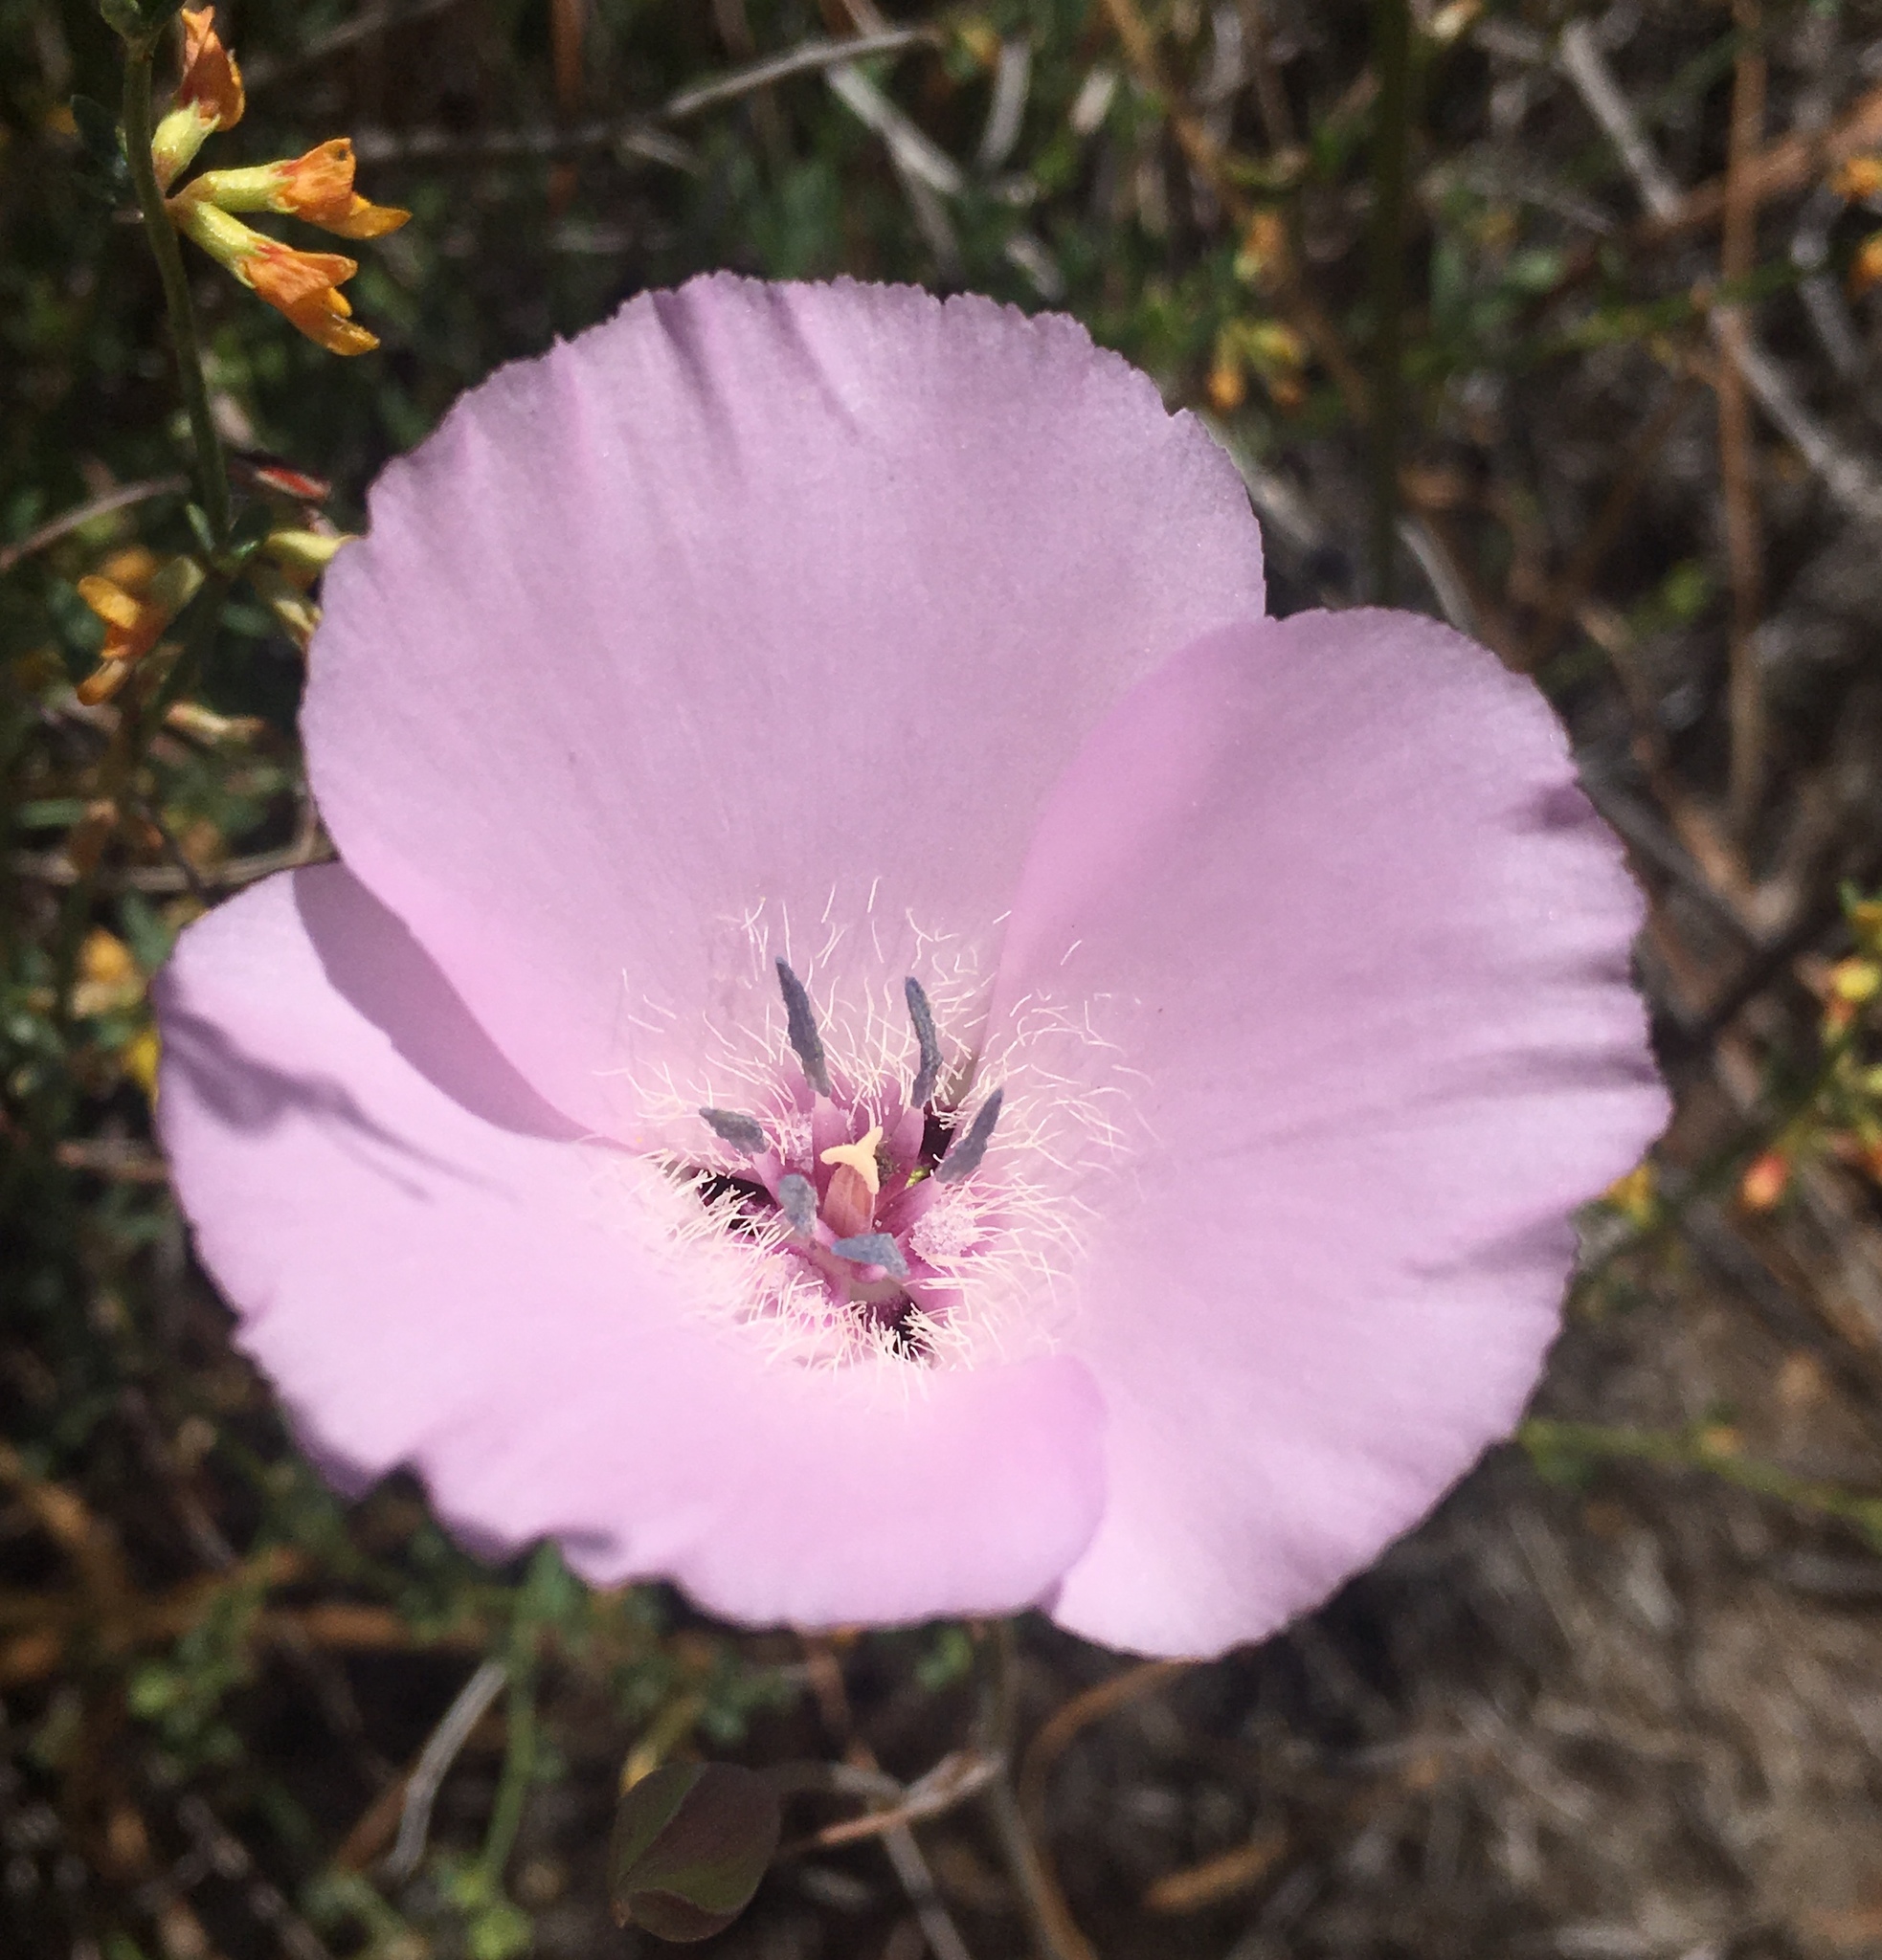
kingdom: Plantae
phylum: Tracheophyta
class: Liliopsida
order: Liliales
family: Liliaceae
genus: Calochortus
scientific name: Calochortus splendens
